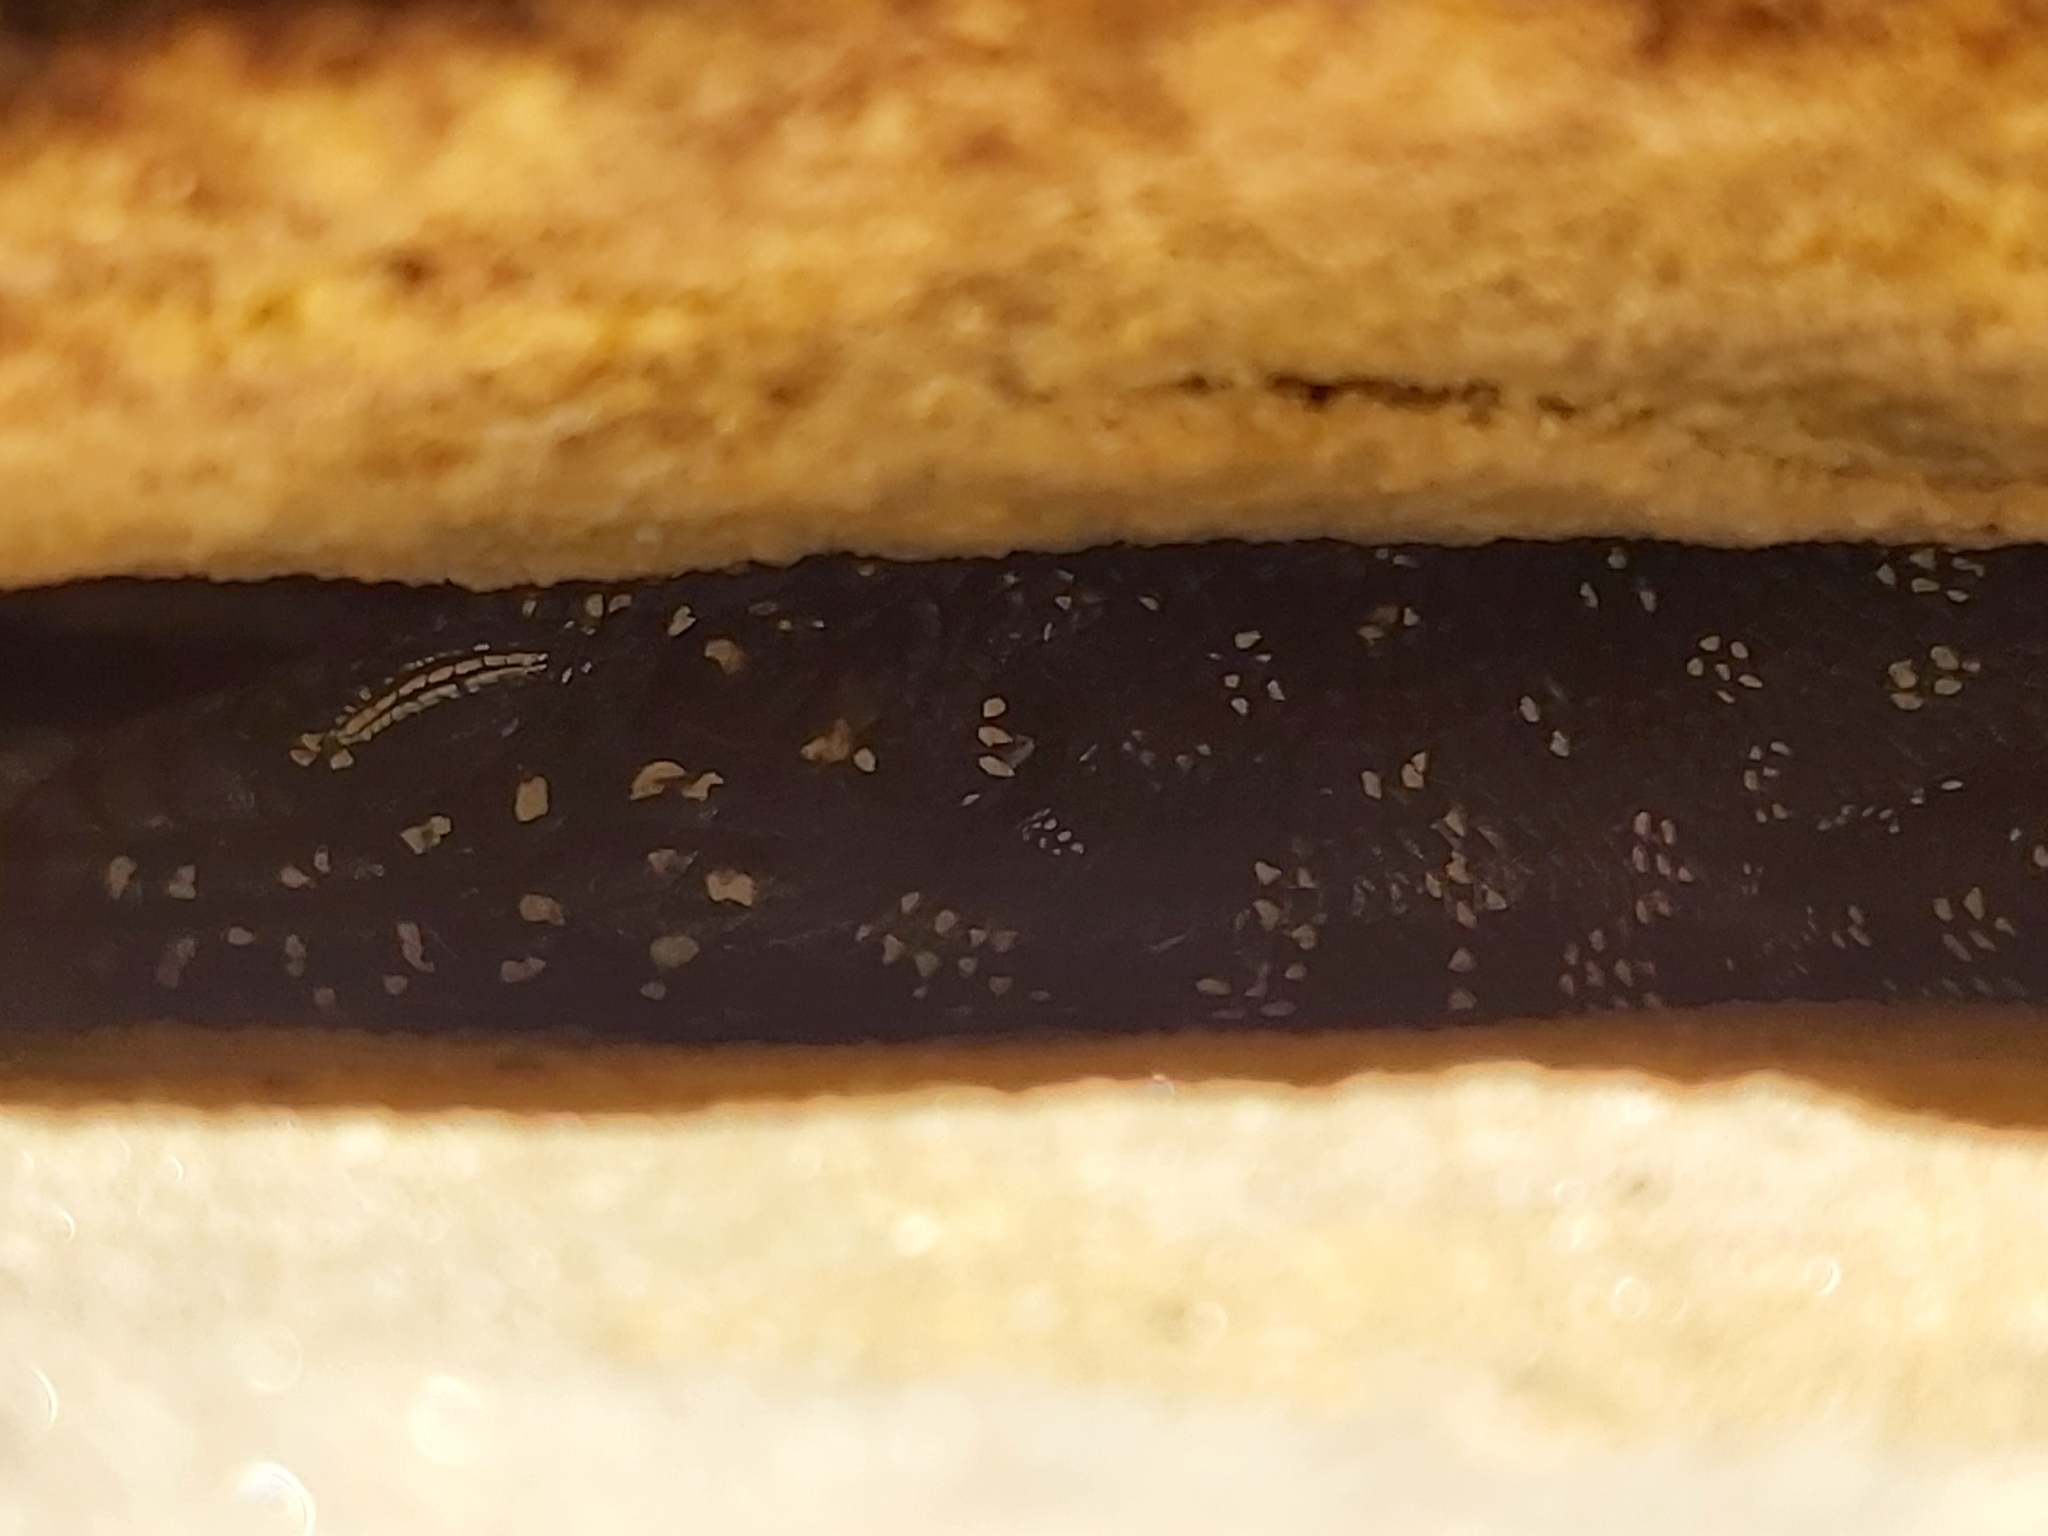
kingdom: Animalia
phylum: Chordata
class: Squamata
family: Scincidae
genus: Egernia
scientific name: Egernia cunninghami
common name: Cunningham's skink
